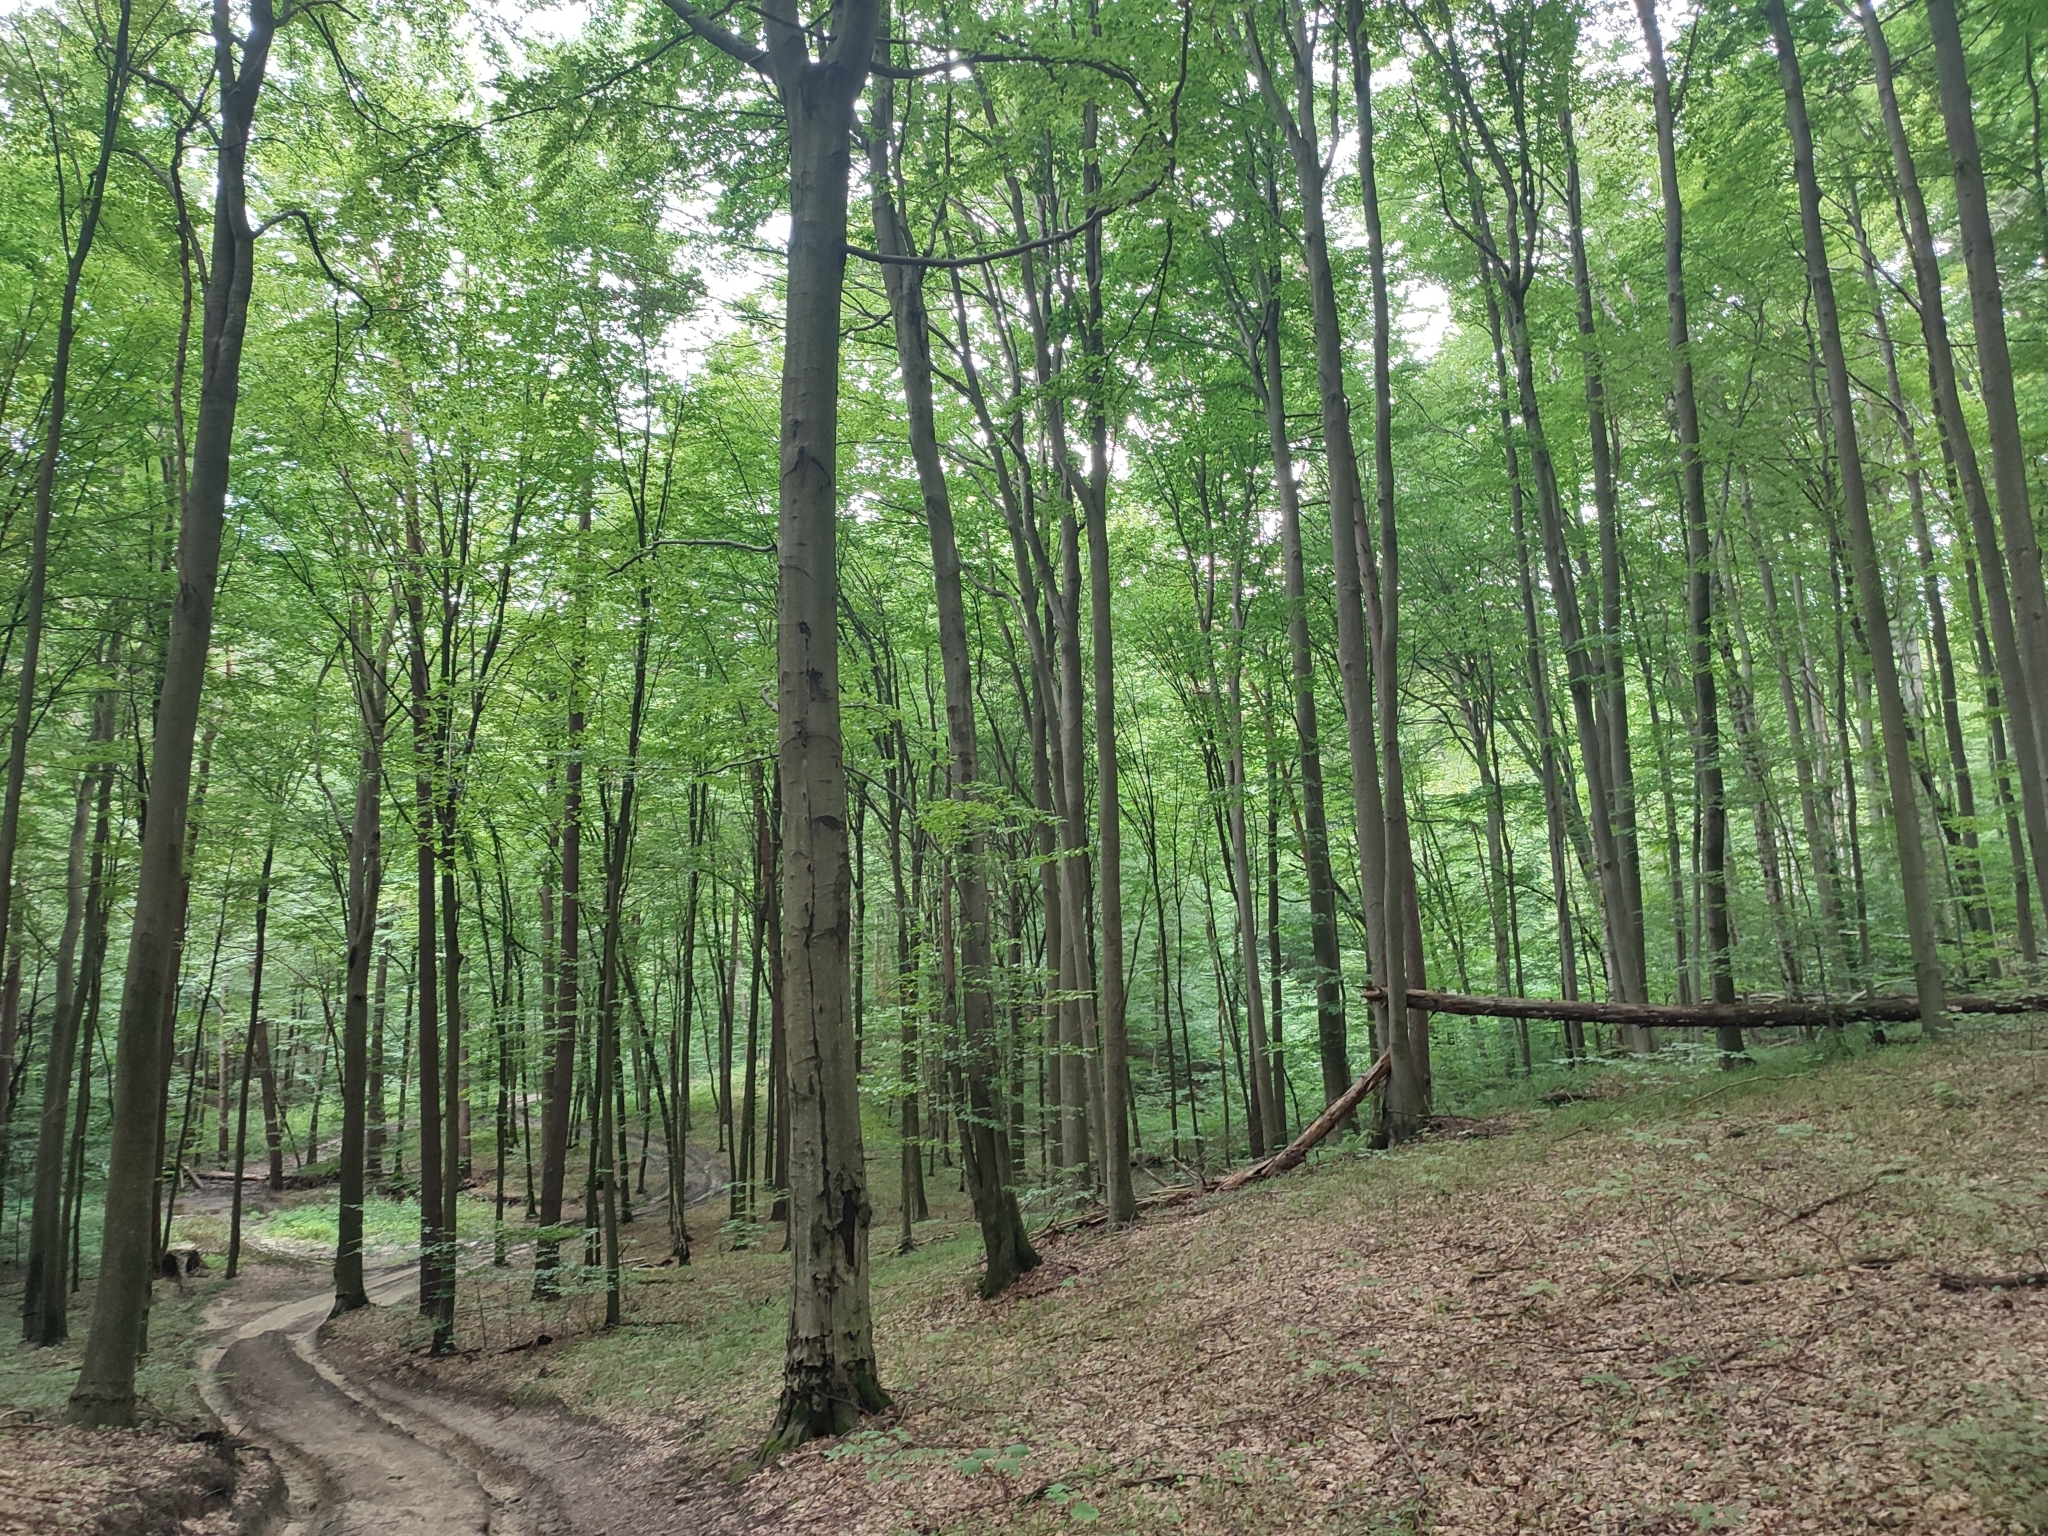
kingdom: Plantae
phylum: Tracheophyta
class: Magnoliopsida
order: Fagales
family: Fagaceae
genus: Fagus
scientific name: Fagus sylvatica
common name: Beech
